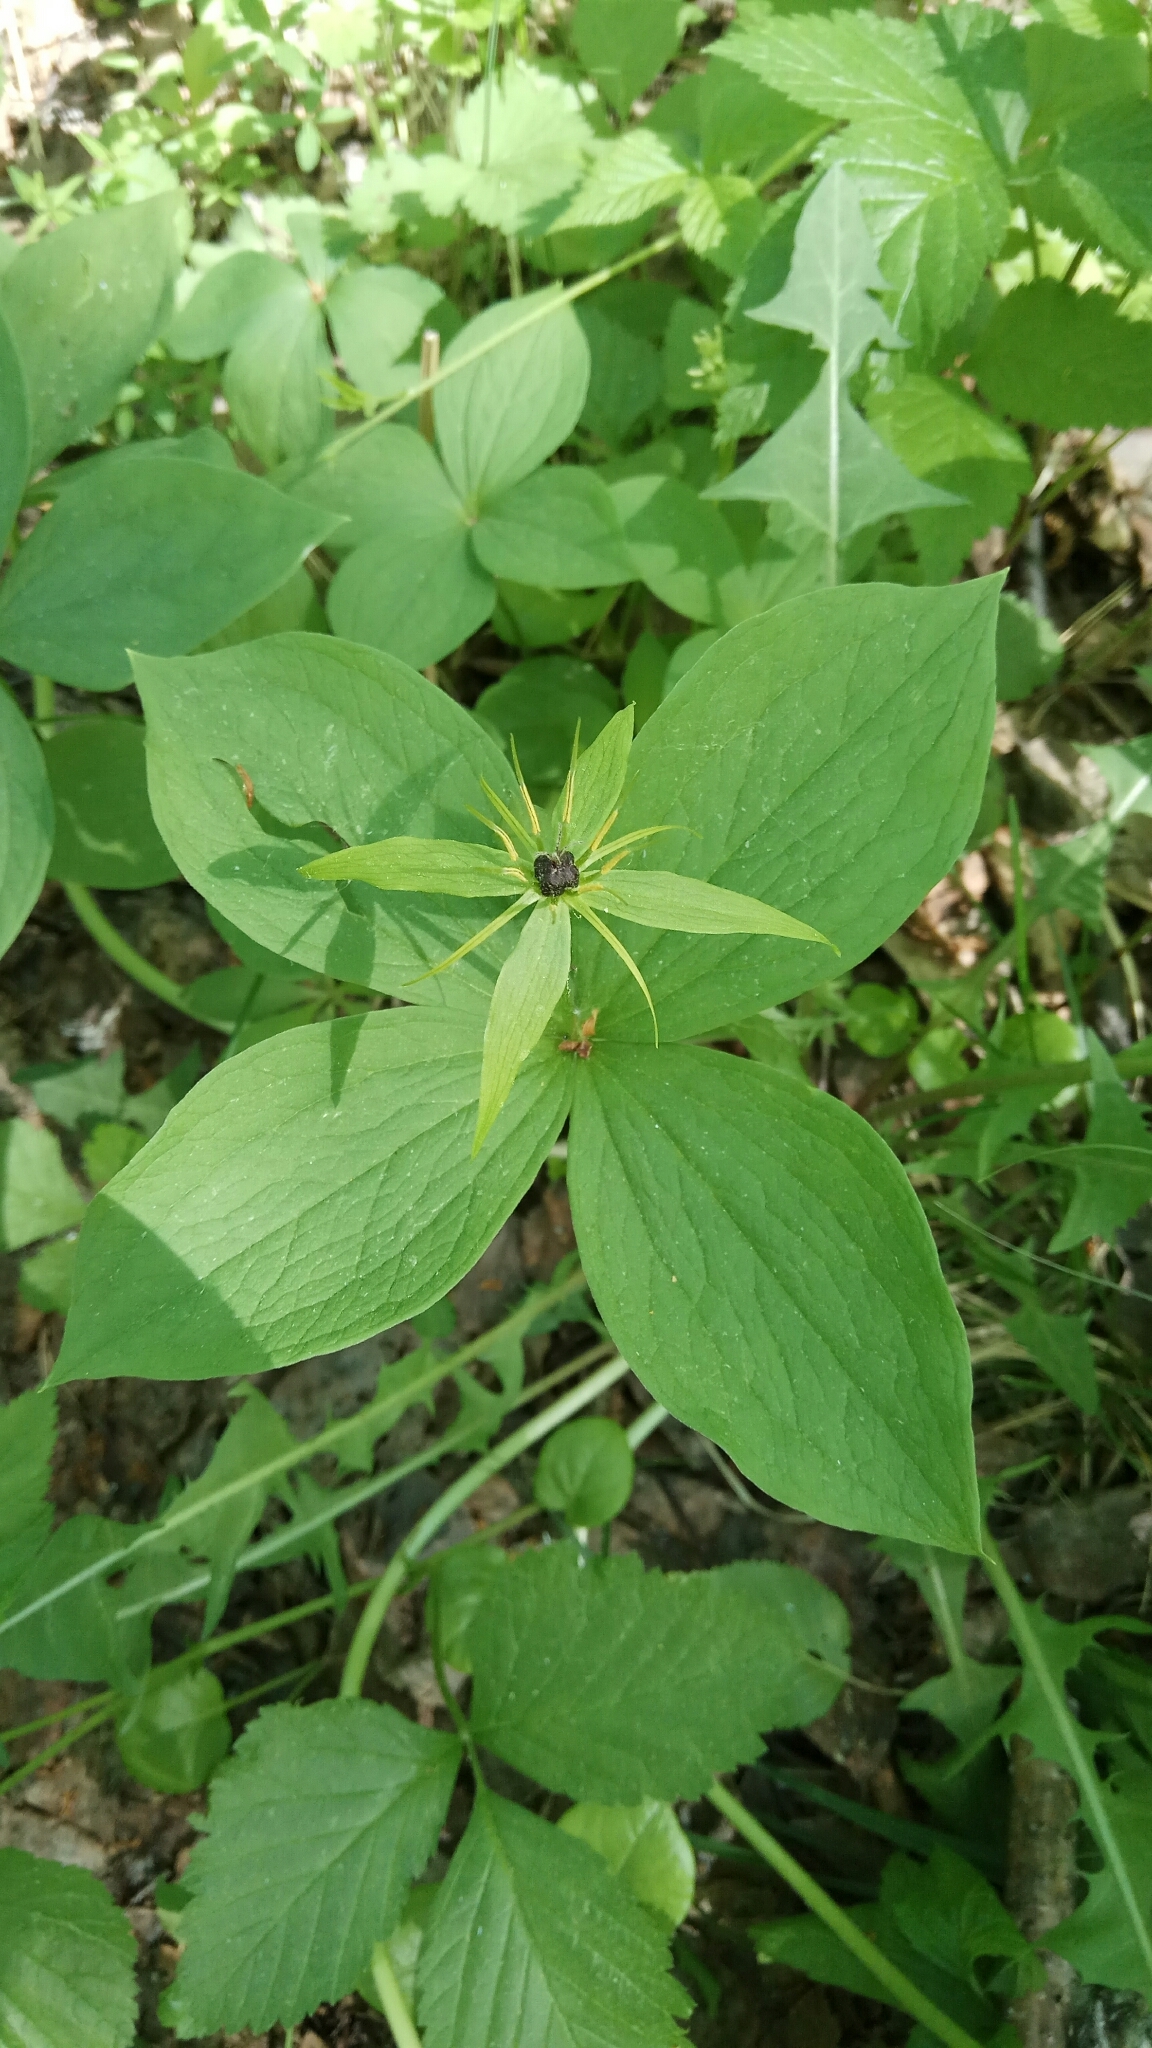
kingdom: Plantae
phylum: Tracheophyta
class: Liliopsida
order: Liliales
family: Melanthiaceae
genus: Paris
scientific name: Paris quadrifolia
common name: Herb-paris
